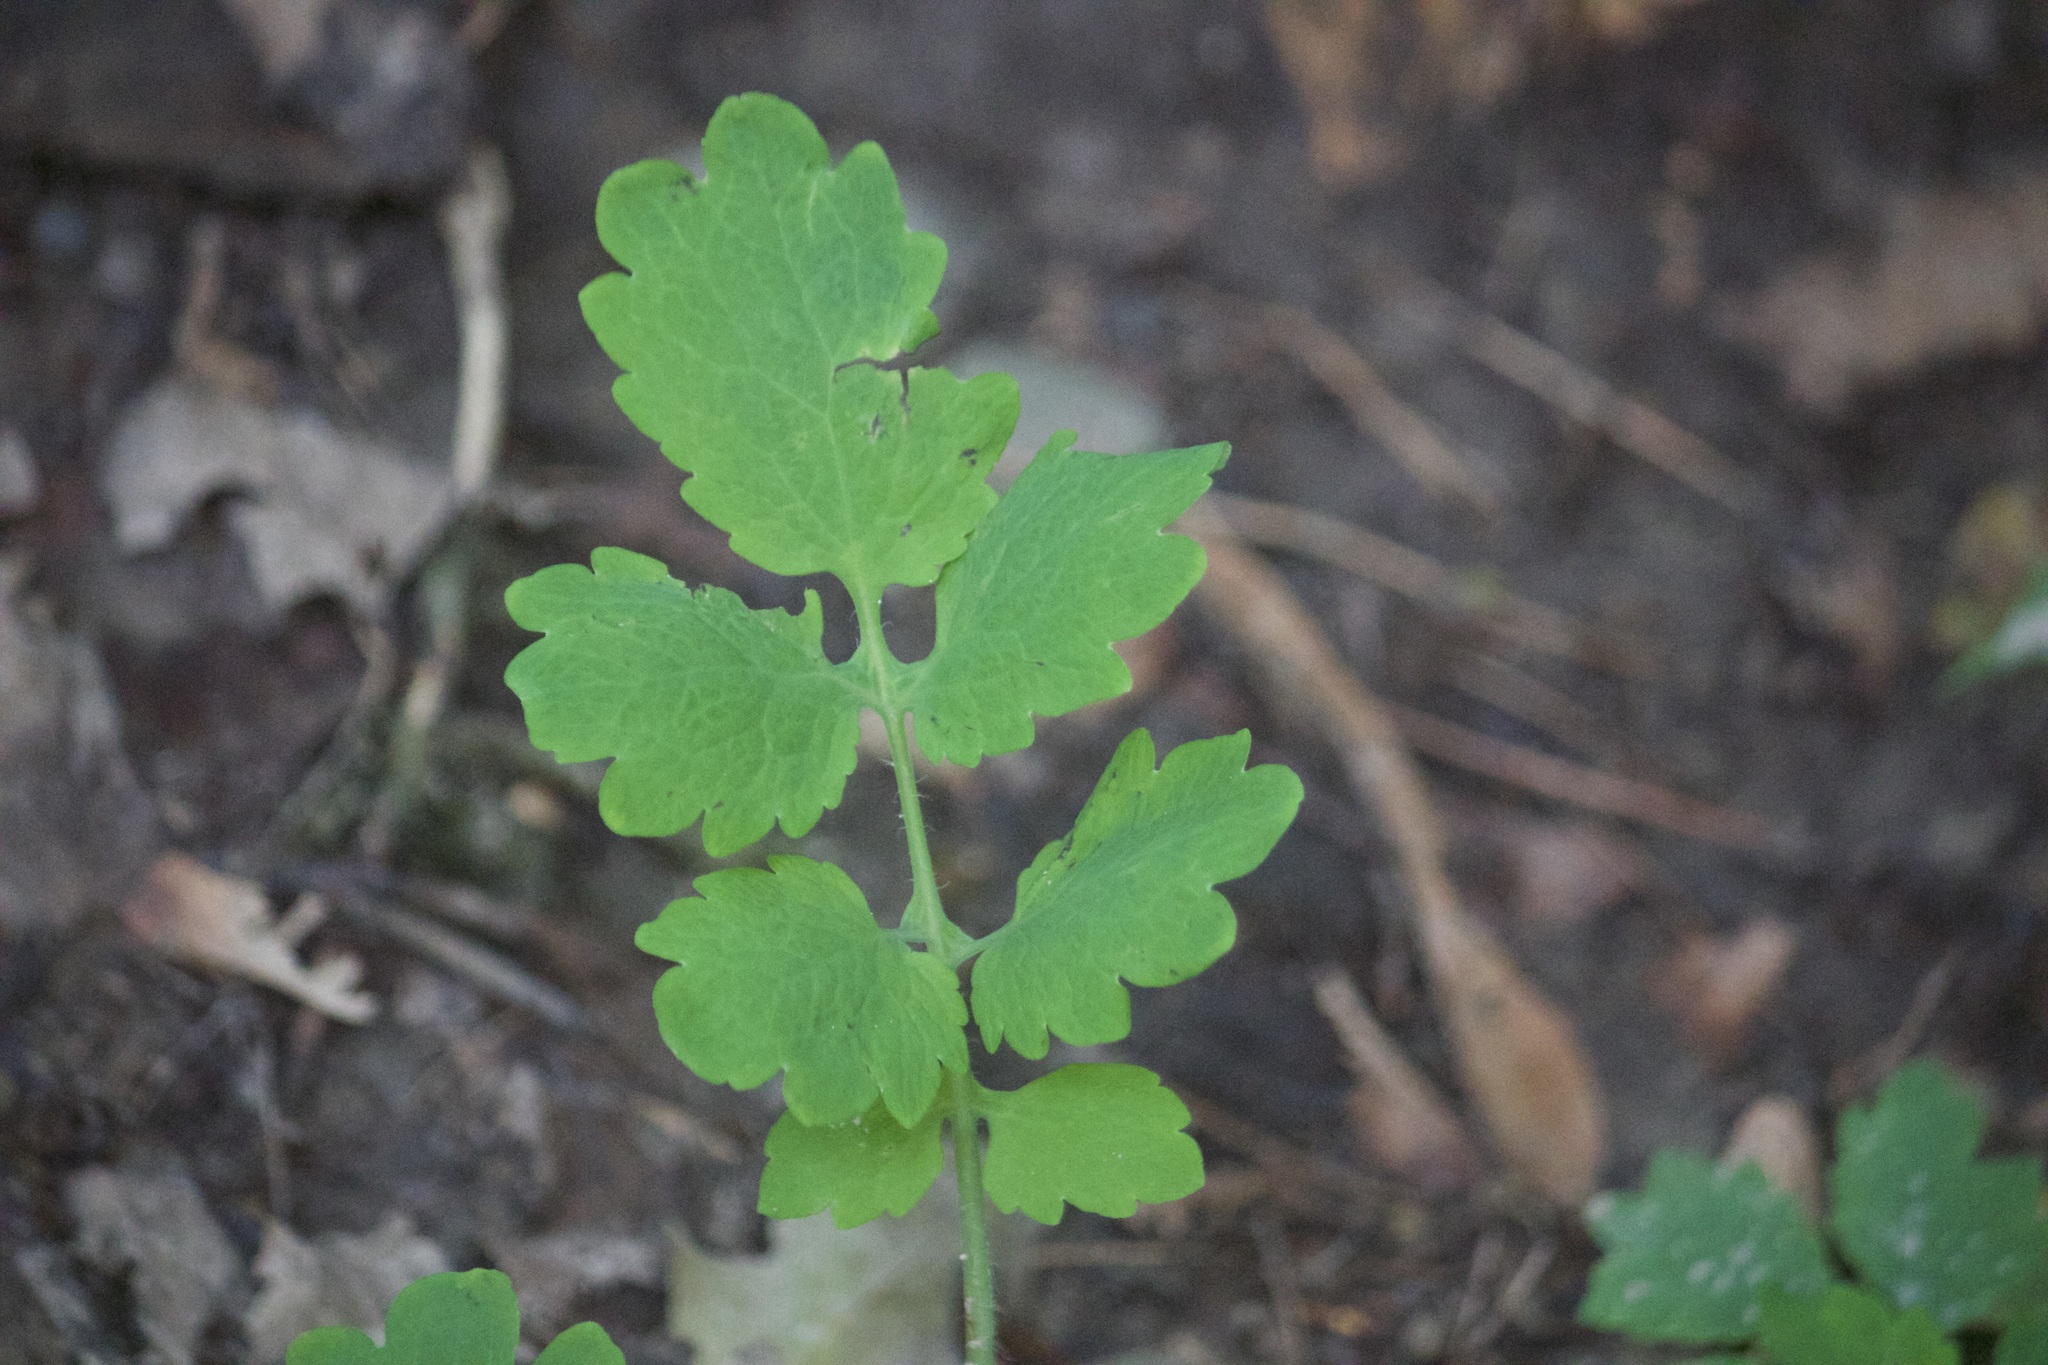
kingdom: Plantae
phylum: Tracheophyta
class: Magnoliopsida
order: Ranunculales
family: Papaveraceae
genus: Chelidonium
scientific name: Chelidonium majus
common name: Greater celandine
